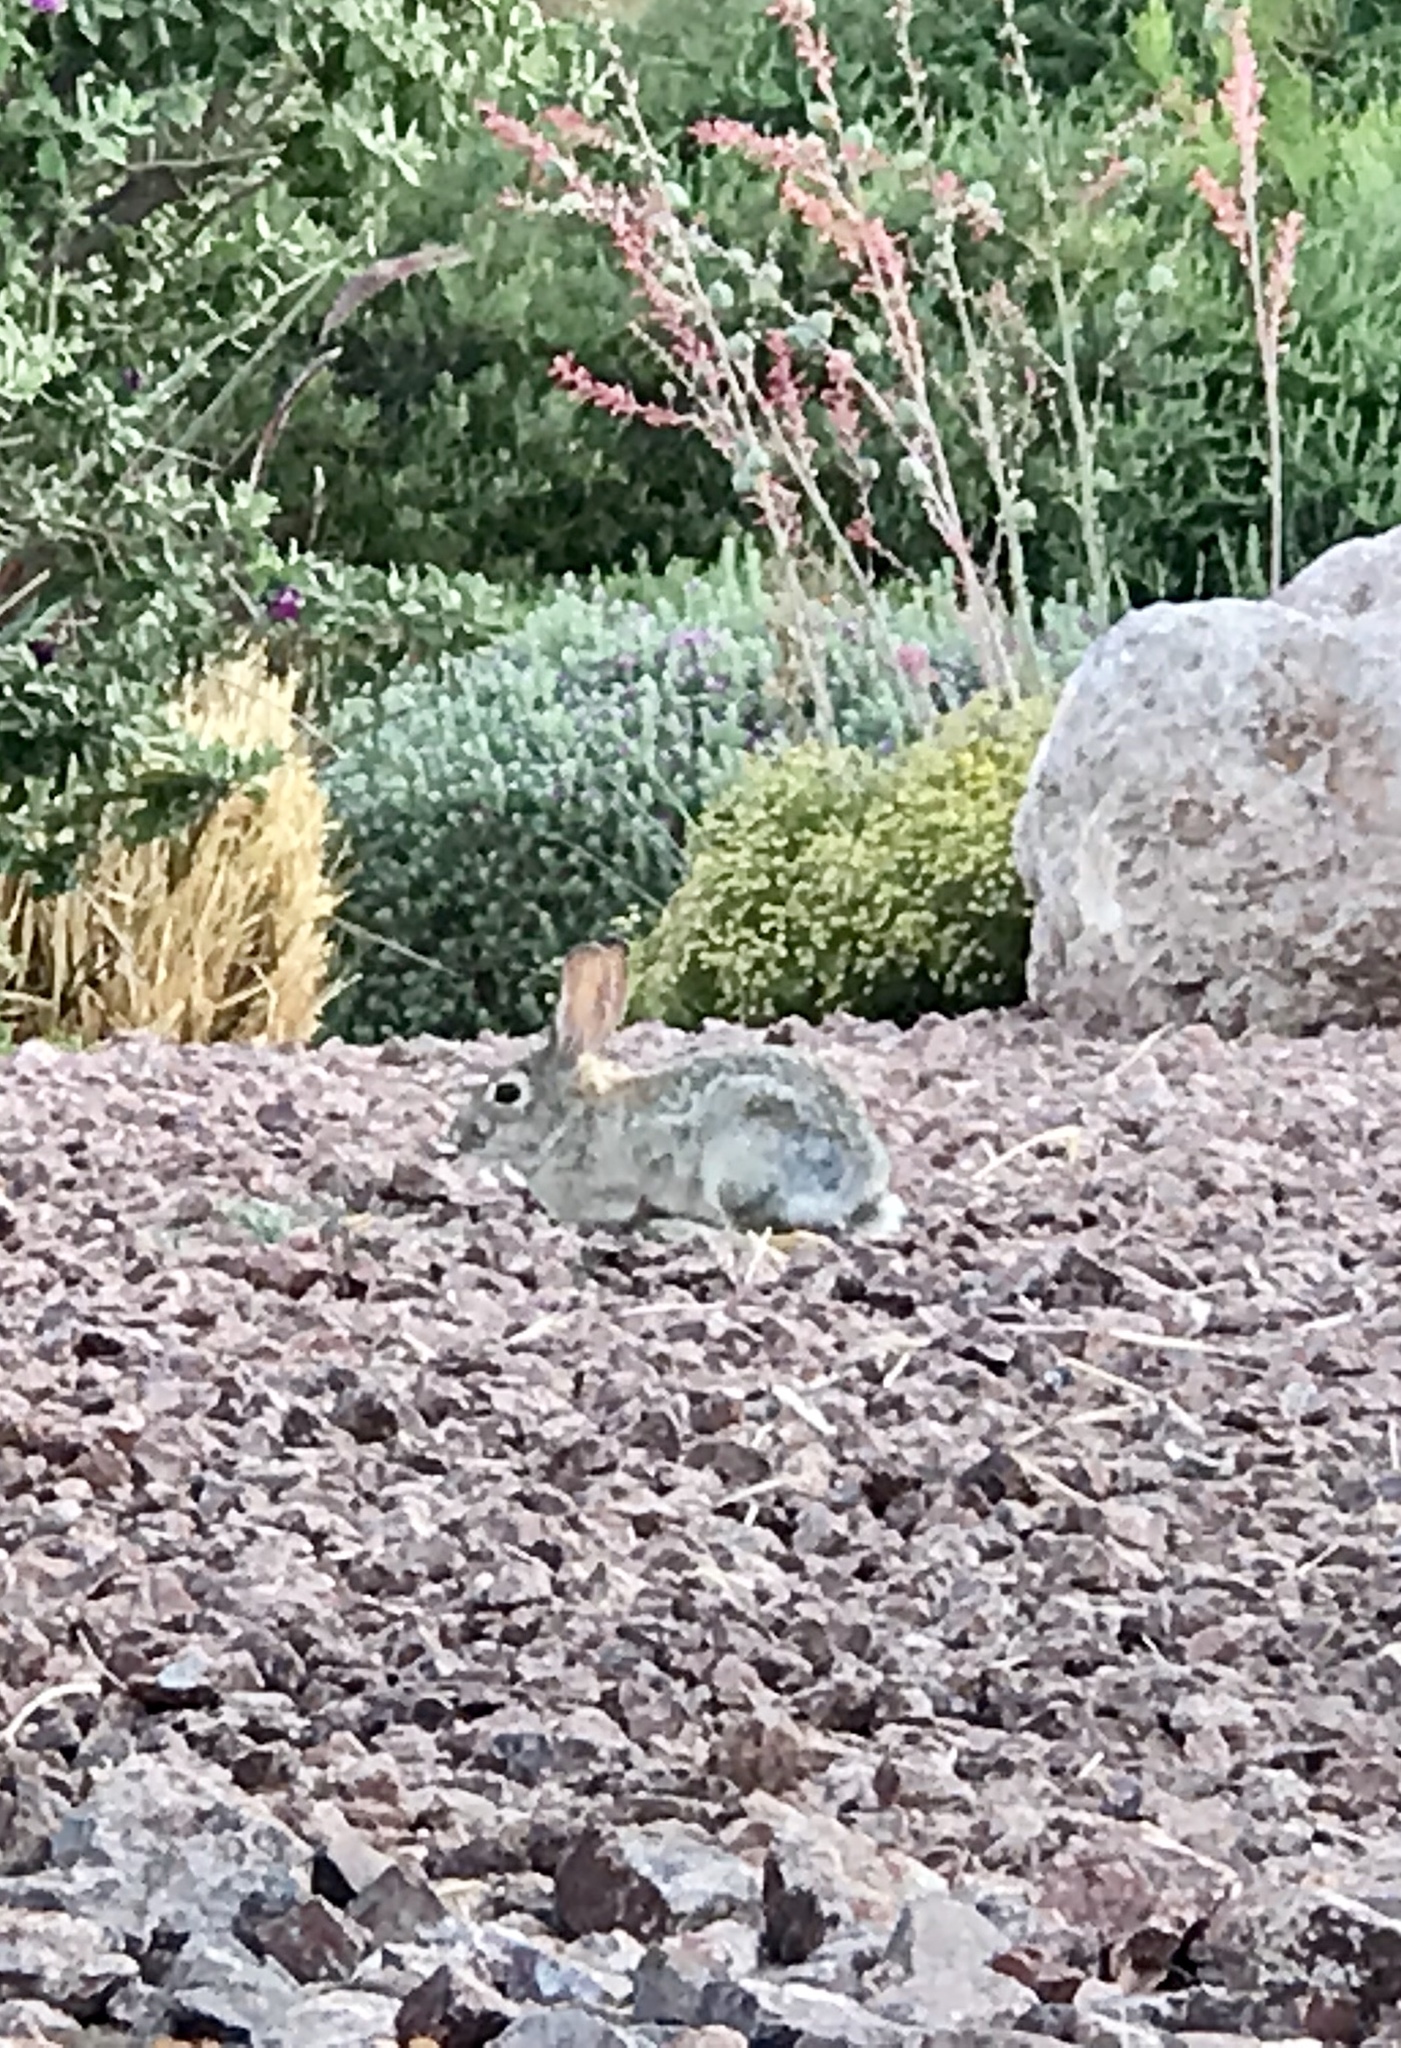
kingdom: Animalia
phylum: Chordata
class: Mammalia
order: Lagomorpha
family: Leporidae
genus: Sylvilagus
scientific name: Sylvilagus audubonii
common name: Desert cottontail
